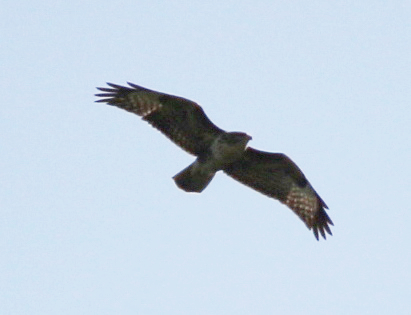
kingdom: Animalia
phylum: Chordata
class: Aves
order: Accipitriformes
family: Accipitridae
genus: Buteo
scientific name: Buteo buteo
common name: Common buzzard
